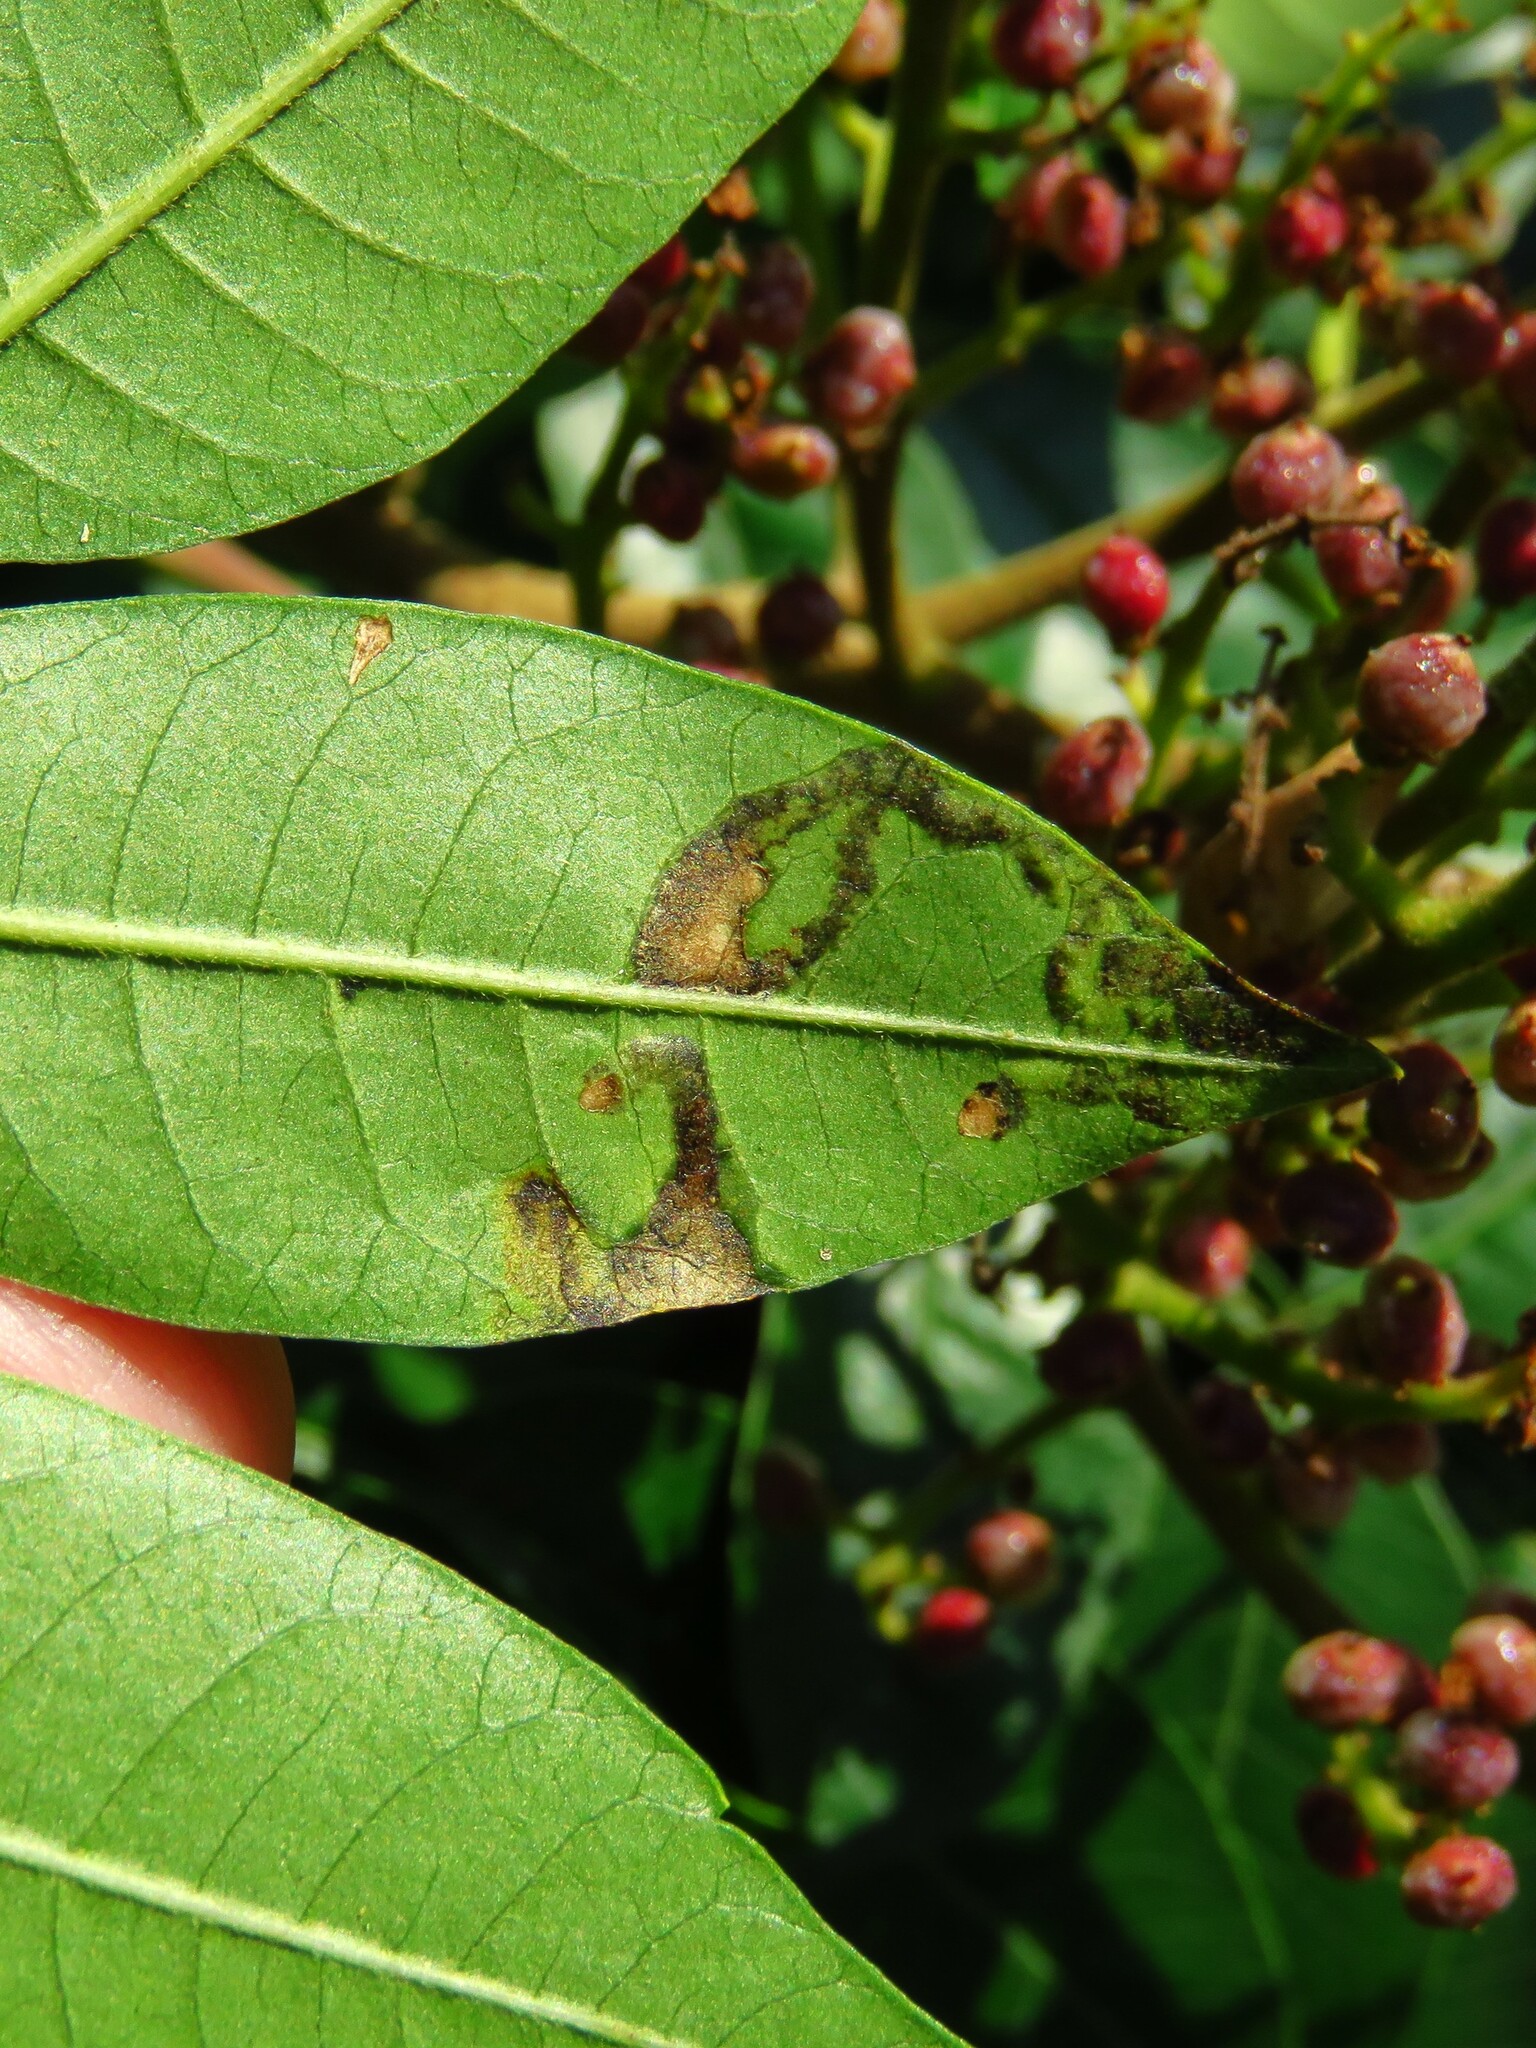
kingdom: Animalia
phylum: Arthropoda
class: Insecta
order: Lepidoptera
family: Nepticulidae
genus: Stigmella
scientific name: Stigmella intermedia
